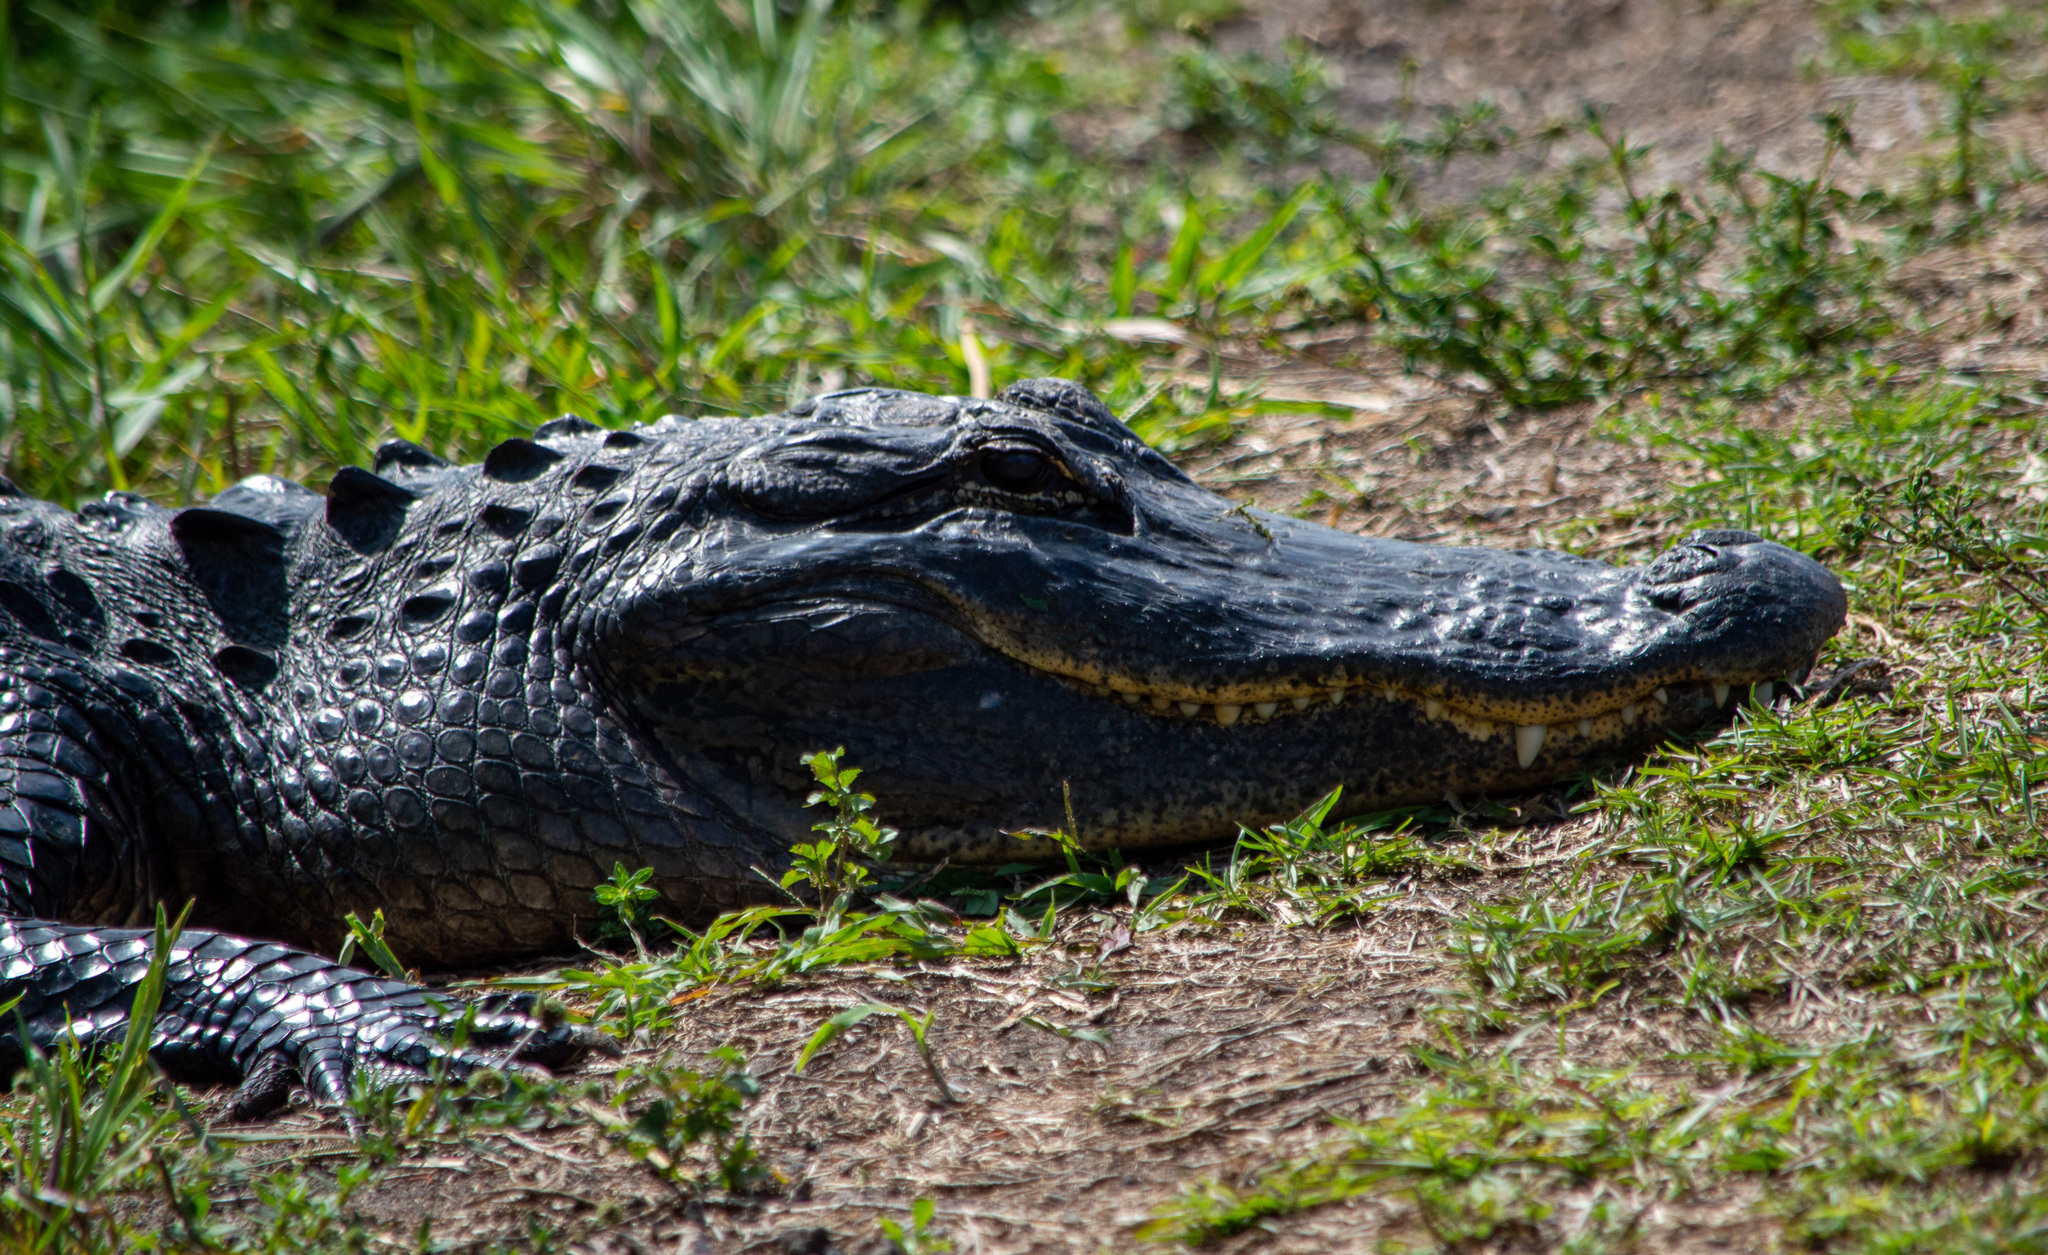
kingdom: Animalia
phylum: Chordata
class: Crocodylia
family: Alligatoridae
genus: Alligator
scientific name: Alligator mississippiensis
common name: American alligator
